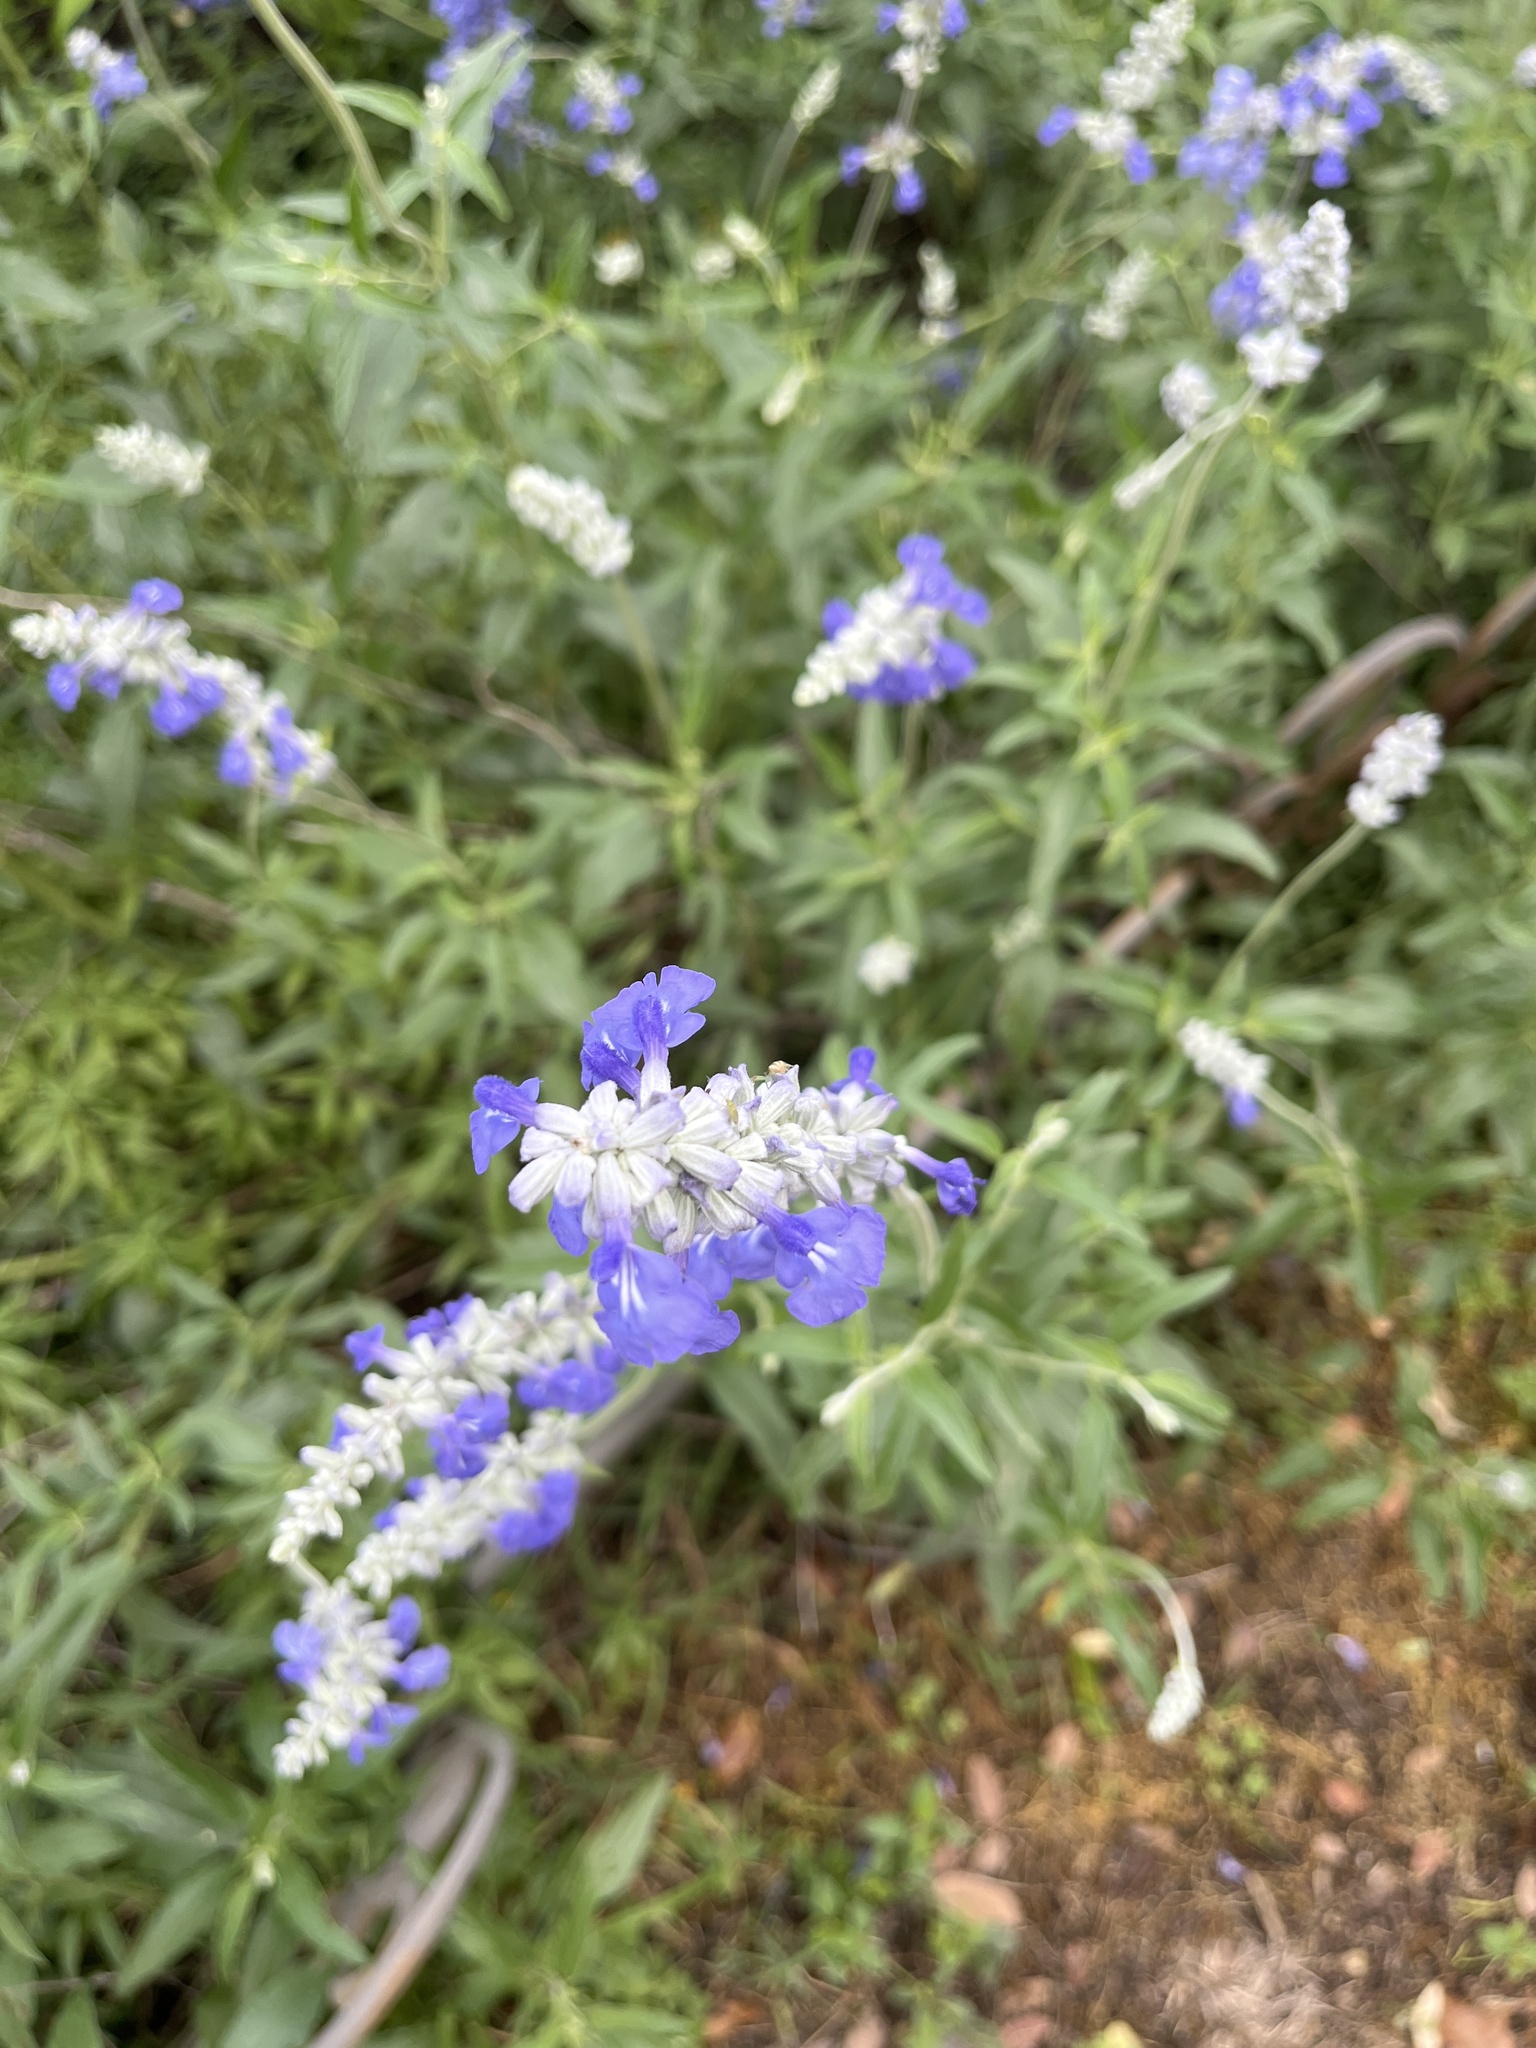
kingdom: Plantae
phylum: Tracheophyta
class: Magnoliopsida
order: Lamiales
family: Lamiaceae
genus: Salvia
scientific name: Salvia farinacea
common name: Mealy sage
